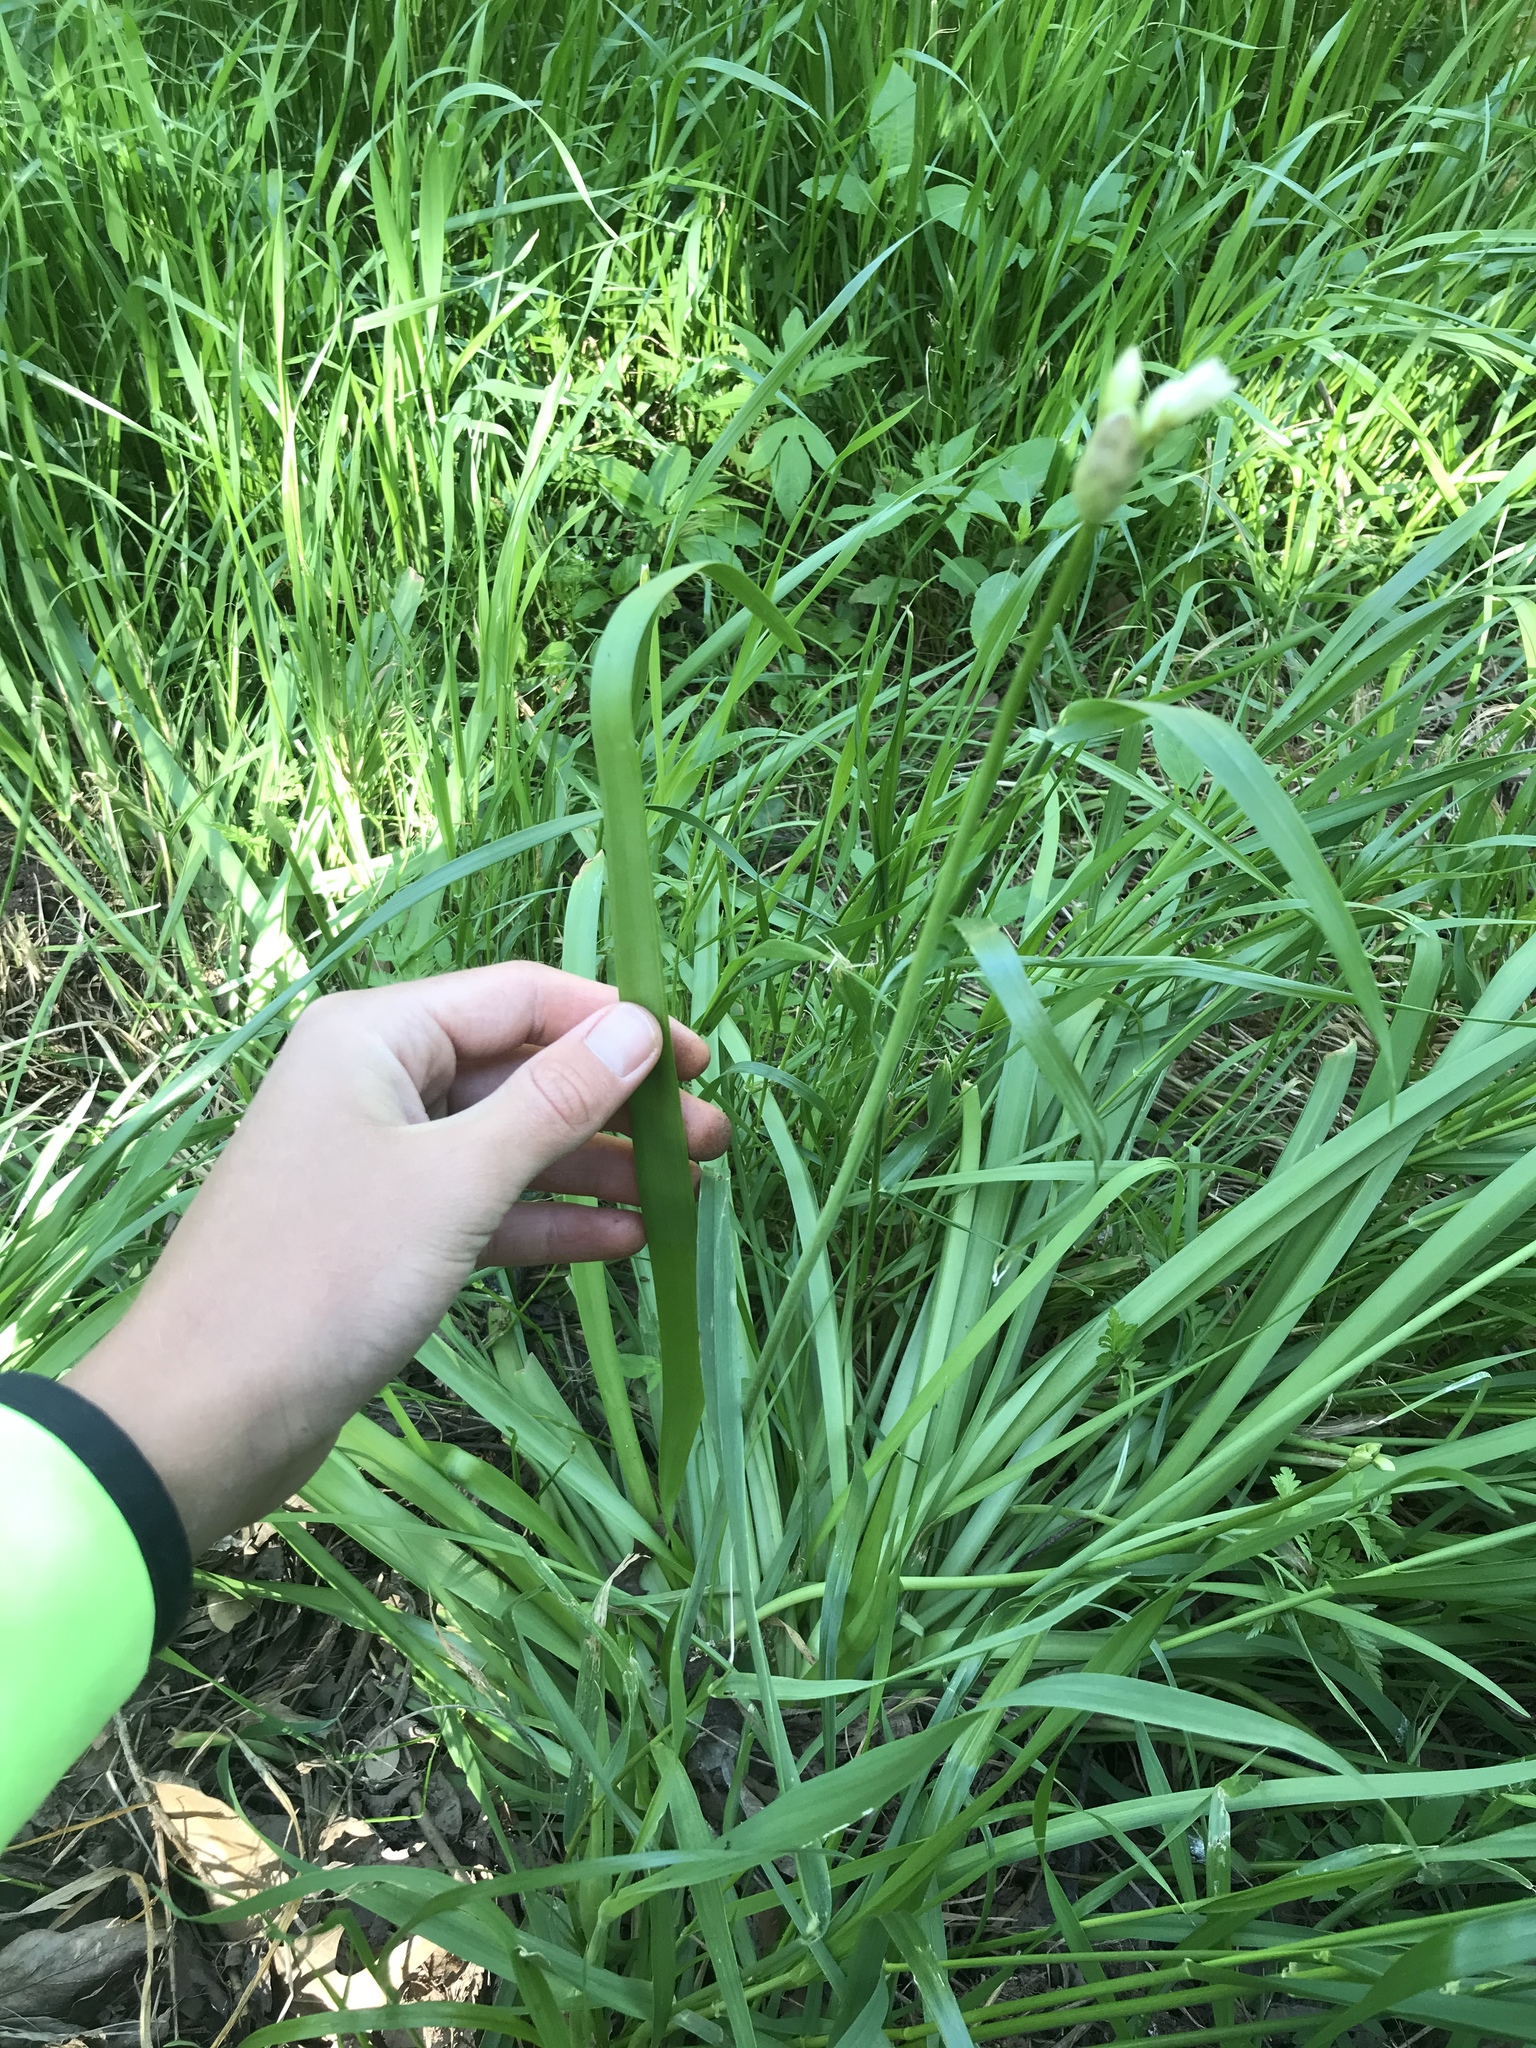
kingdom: Plantae
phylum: Tracheophyta
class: Liliopsida
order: Asparagales
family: Amaryllidaceae
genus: Allium
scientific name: Allium canadense
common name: Meadow garlic
